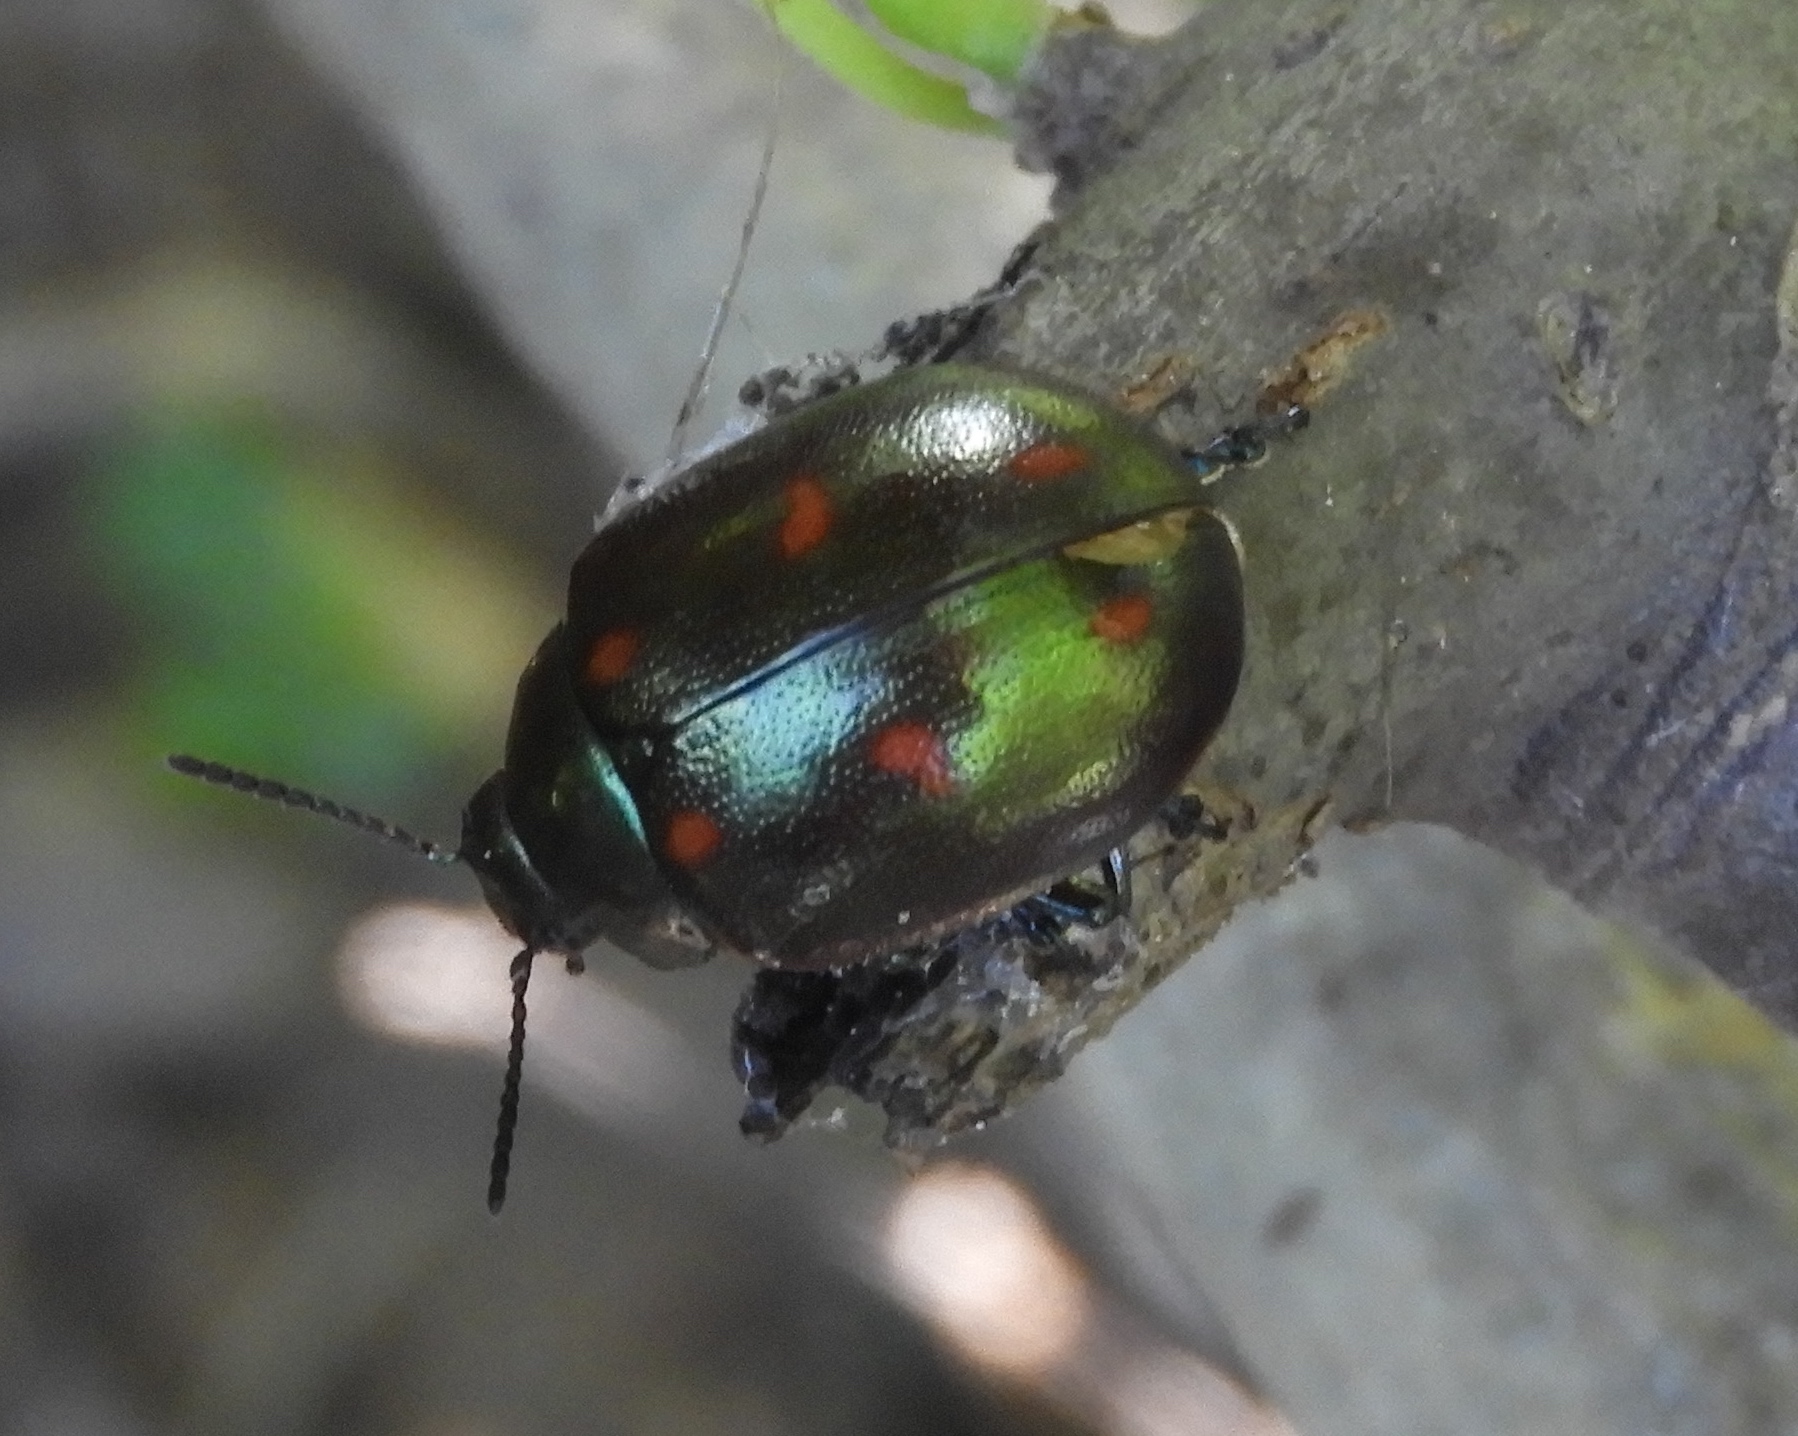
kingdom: Animalia
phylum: Arthropoda
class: Insecta
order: Coleoptera
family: Chrysomelidae
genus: Leptinotarsa
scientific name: Leptinotarsa behrensi
